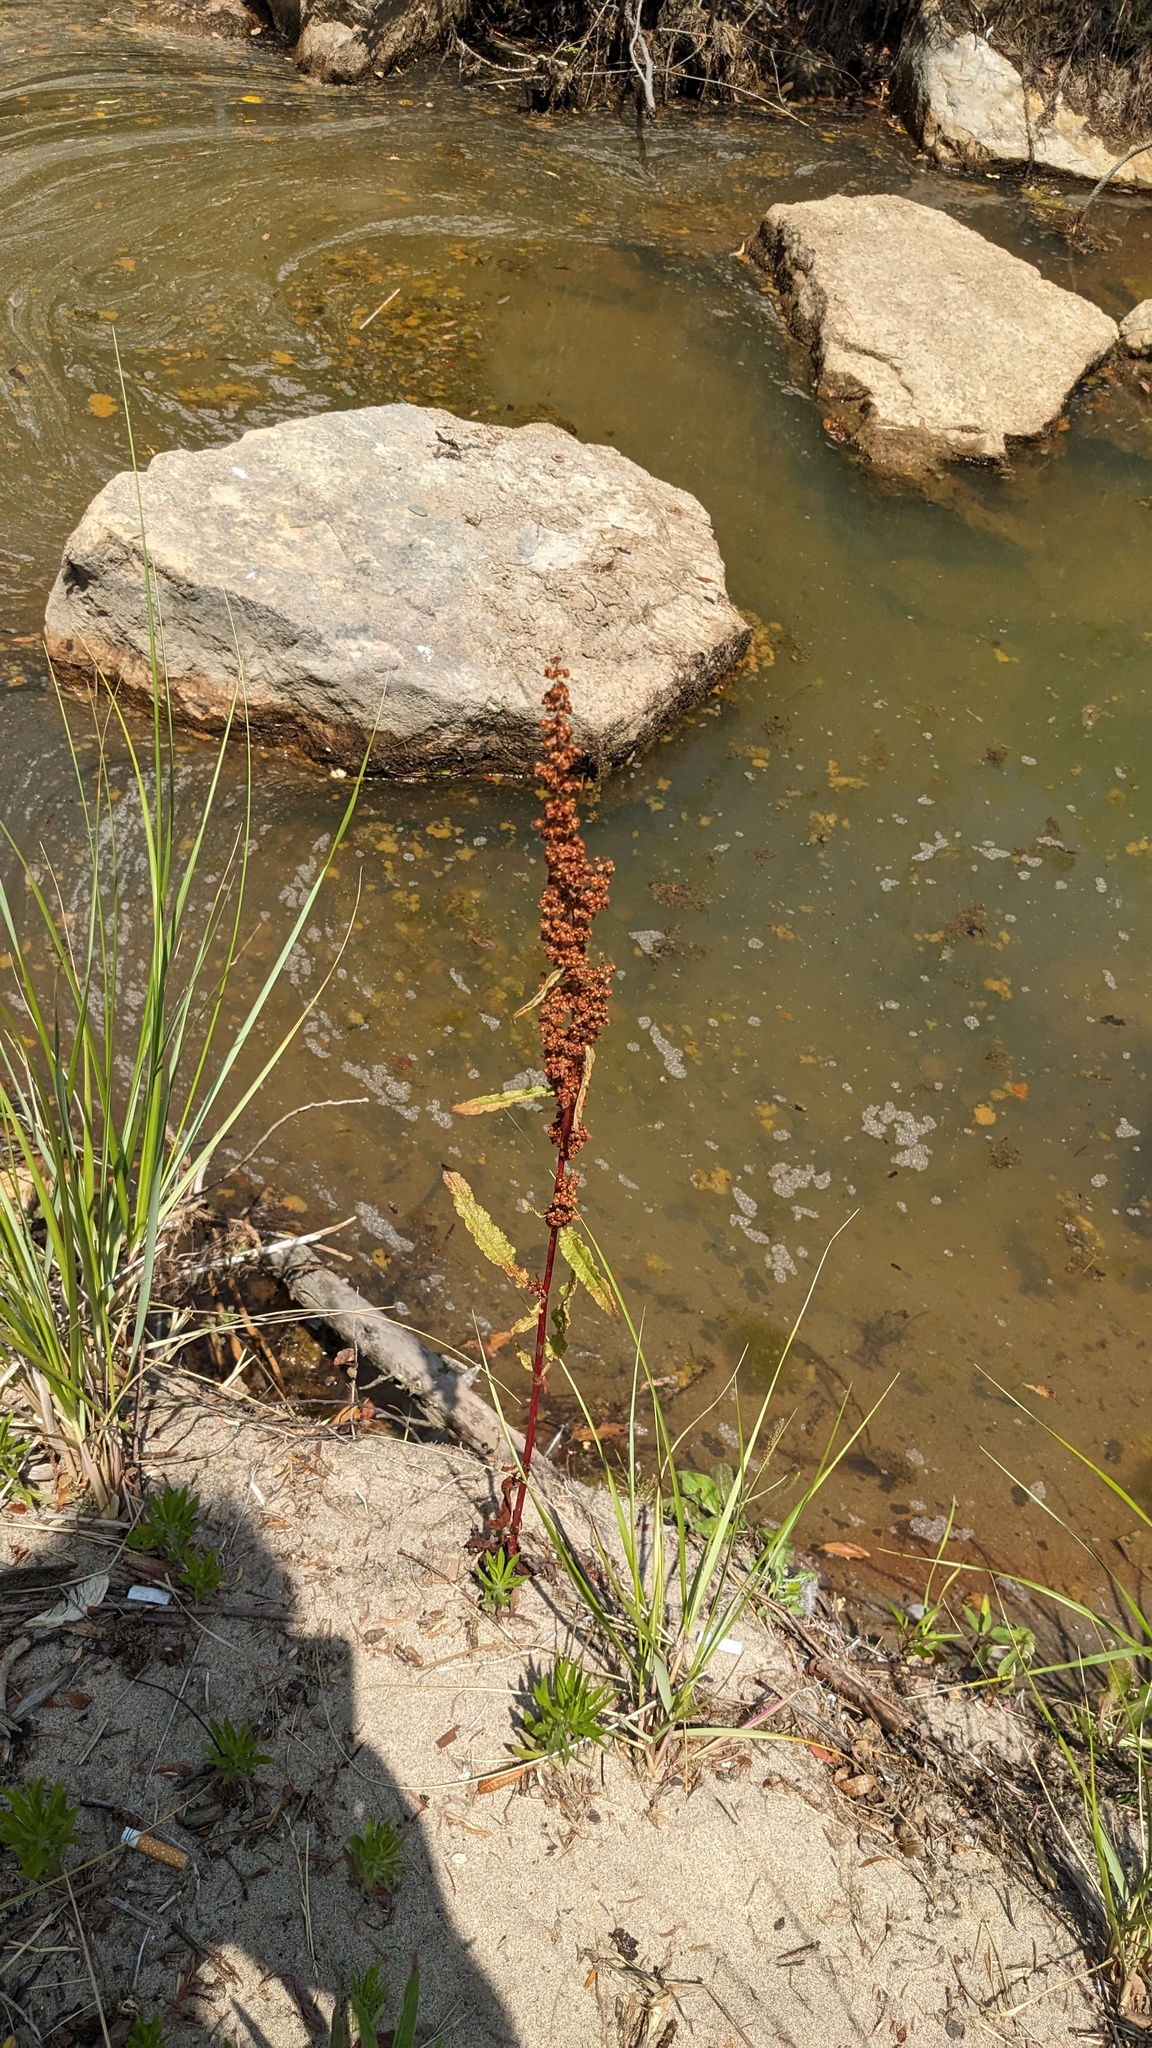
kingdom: Plantae
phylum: Tracheophyta
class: Magnoliopsida
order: Caryophyllales
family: Polygonaceae
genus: Rumex
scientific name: Rumex crispus
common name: Curled dock
